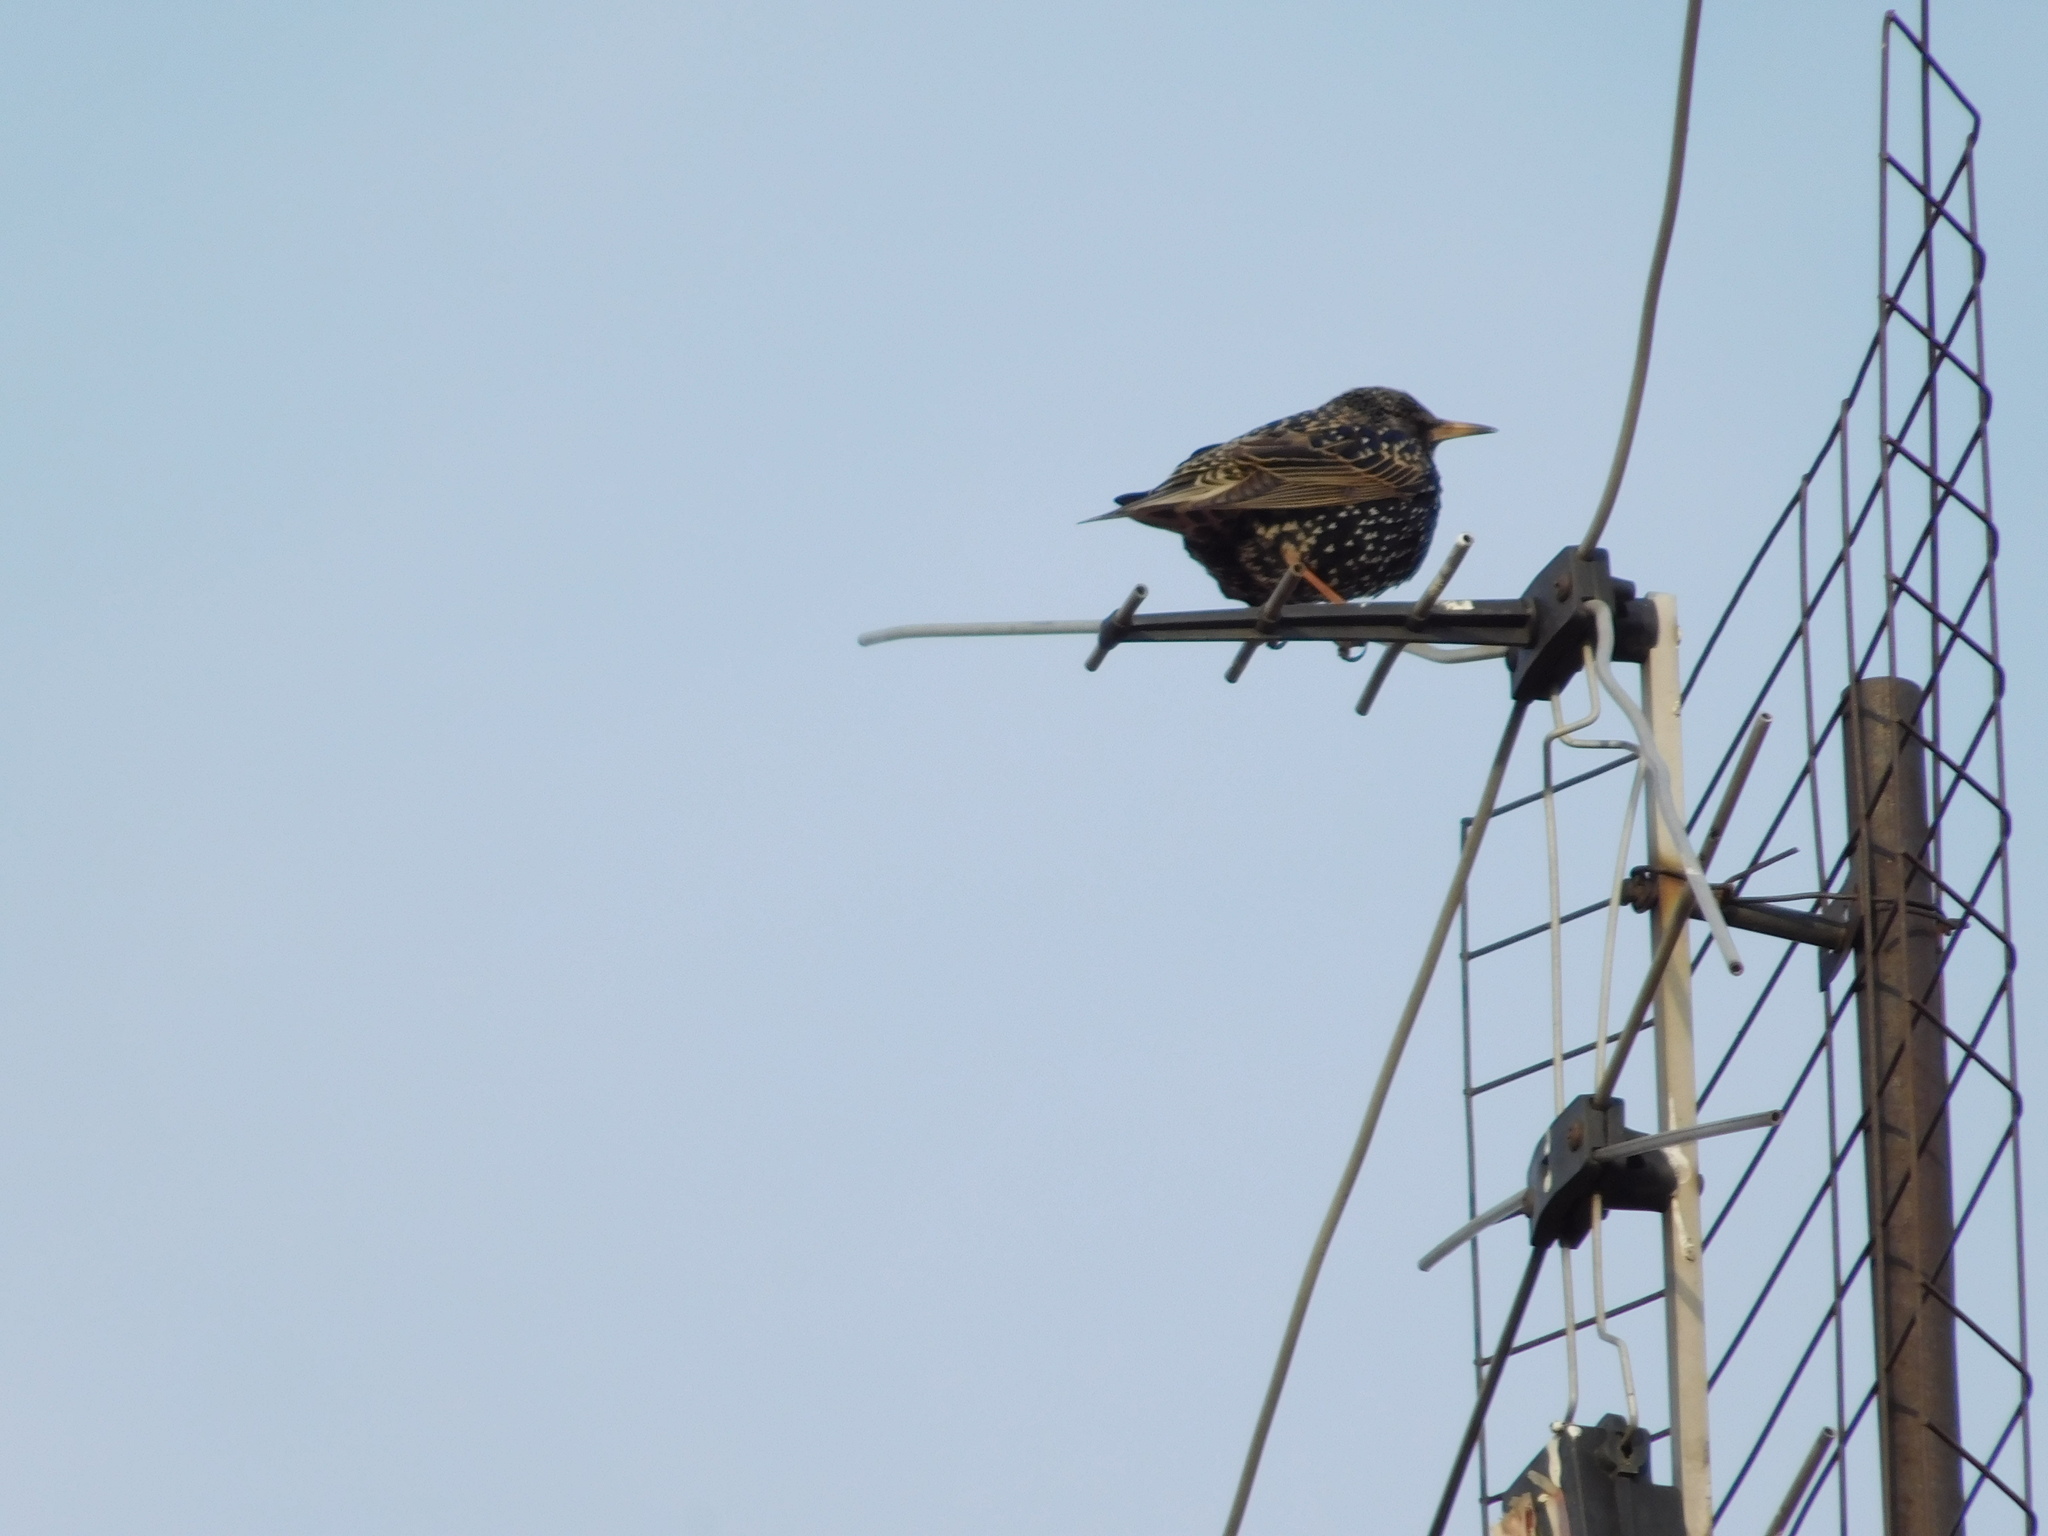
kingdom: Animalia
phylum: Chordata
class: Aves
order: Passeriformes
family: Sturnidae
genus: Sturnus
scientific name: Sturnus vulgaris
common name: Common starling
